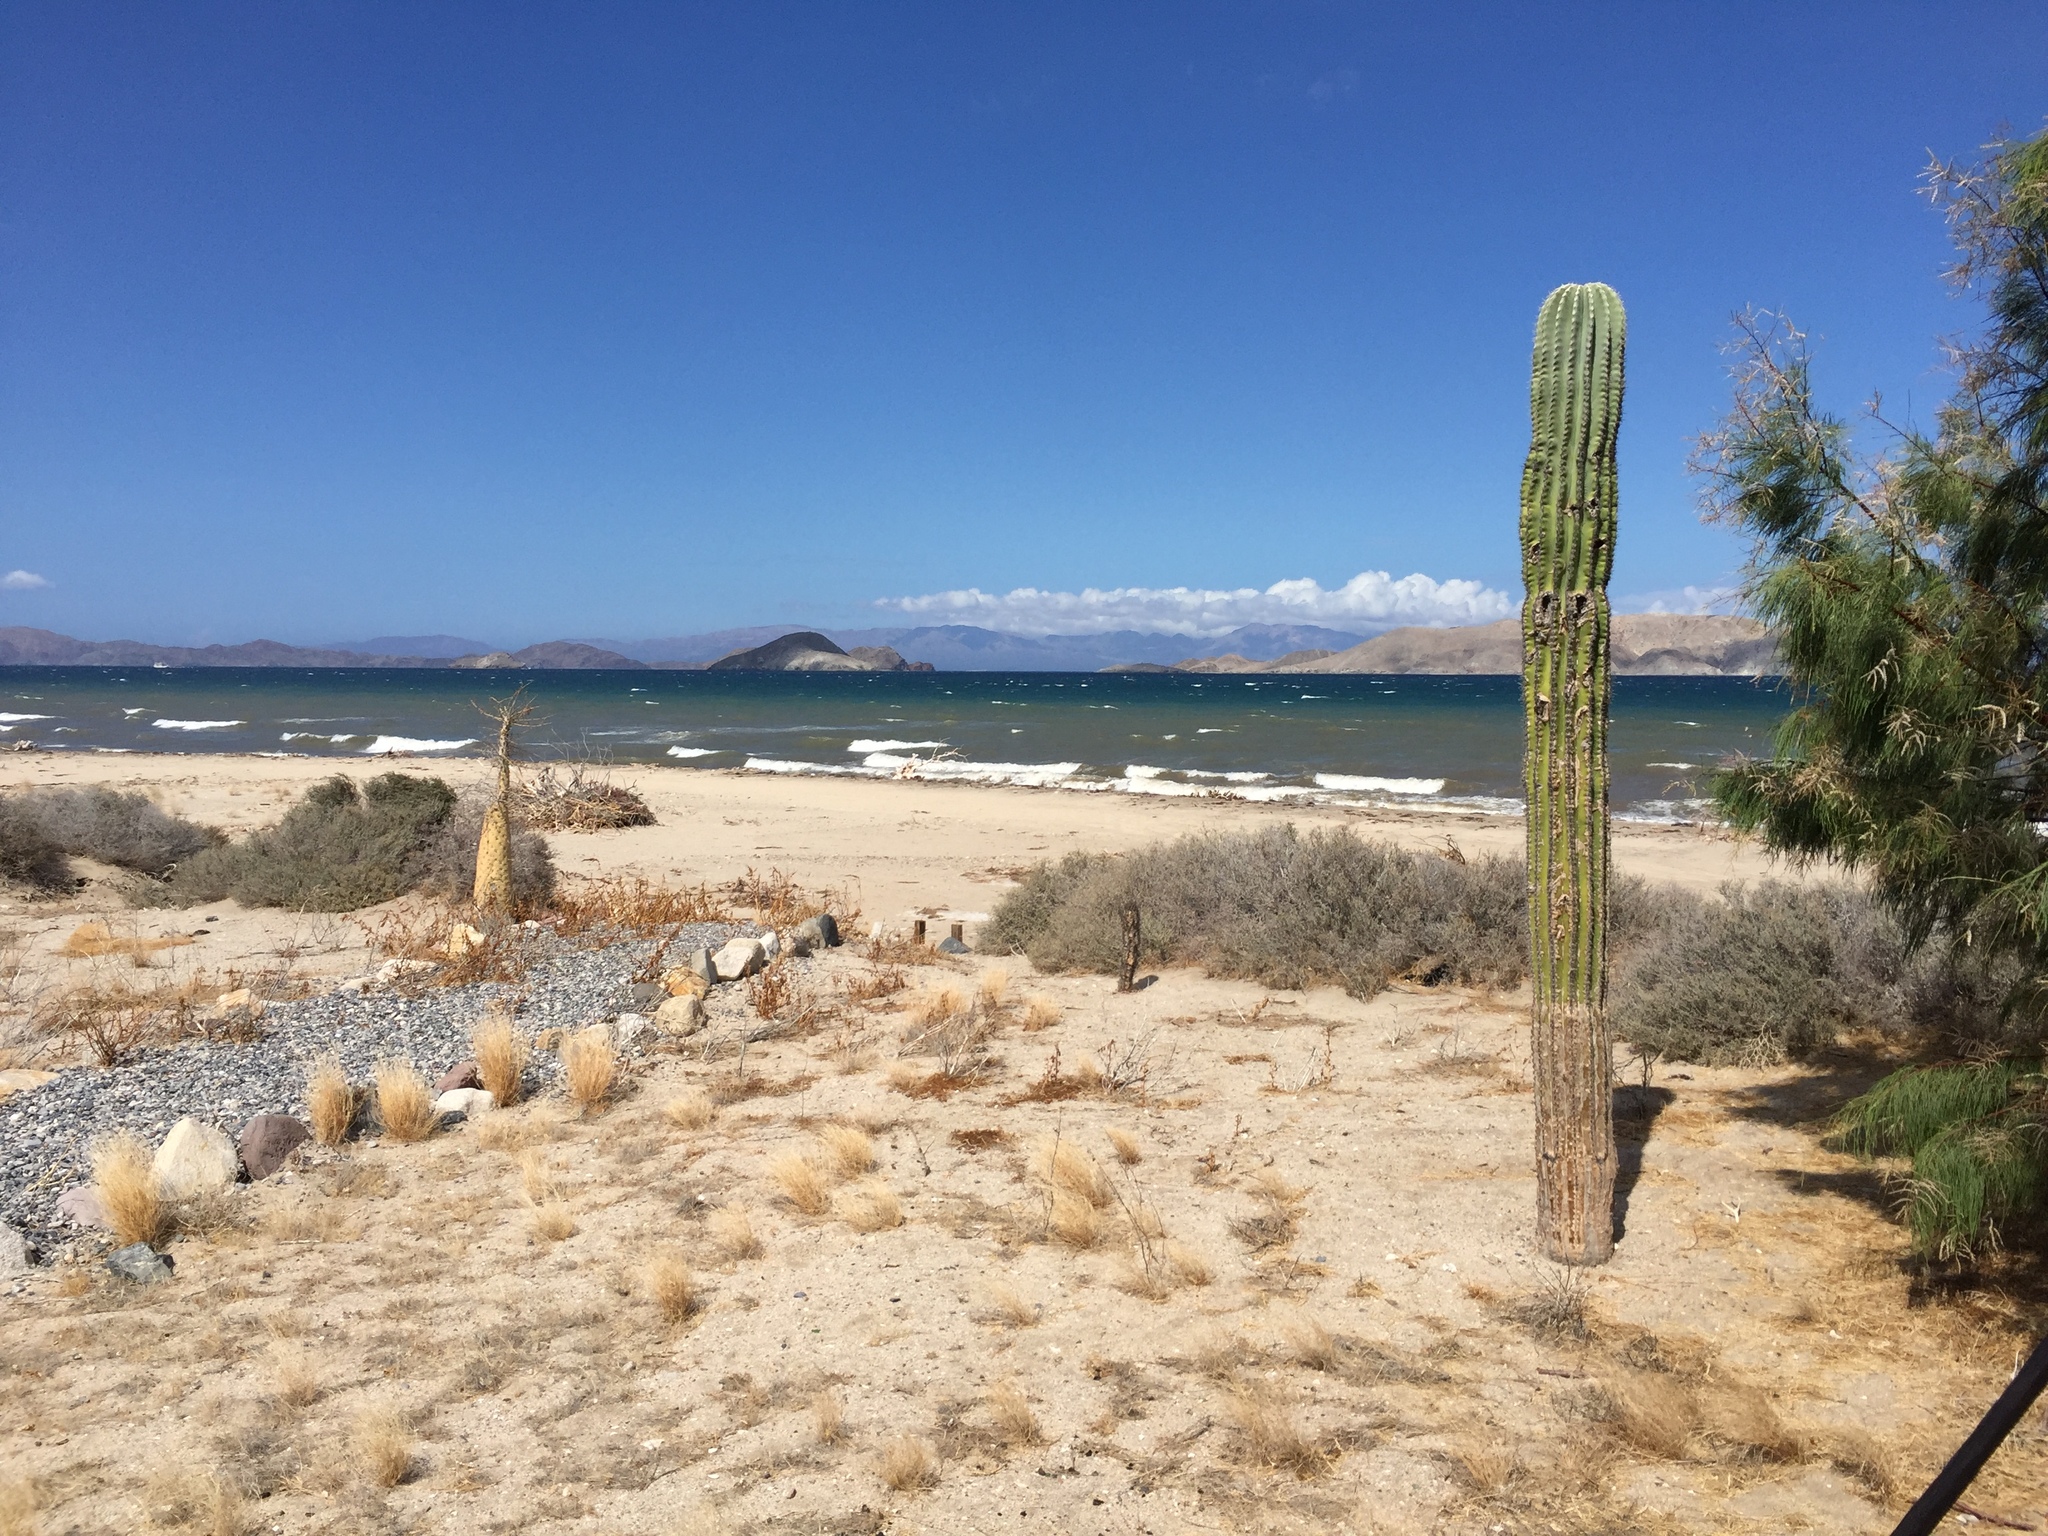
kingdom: Plantae
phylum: Tracheophyta
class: Magnoliopsida
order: Caryophyllales
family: Cactaceae
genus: Pachycereus
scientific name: Pachycereus pringlei
